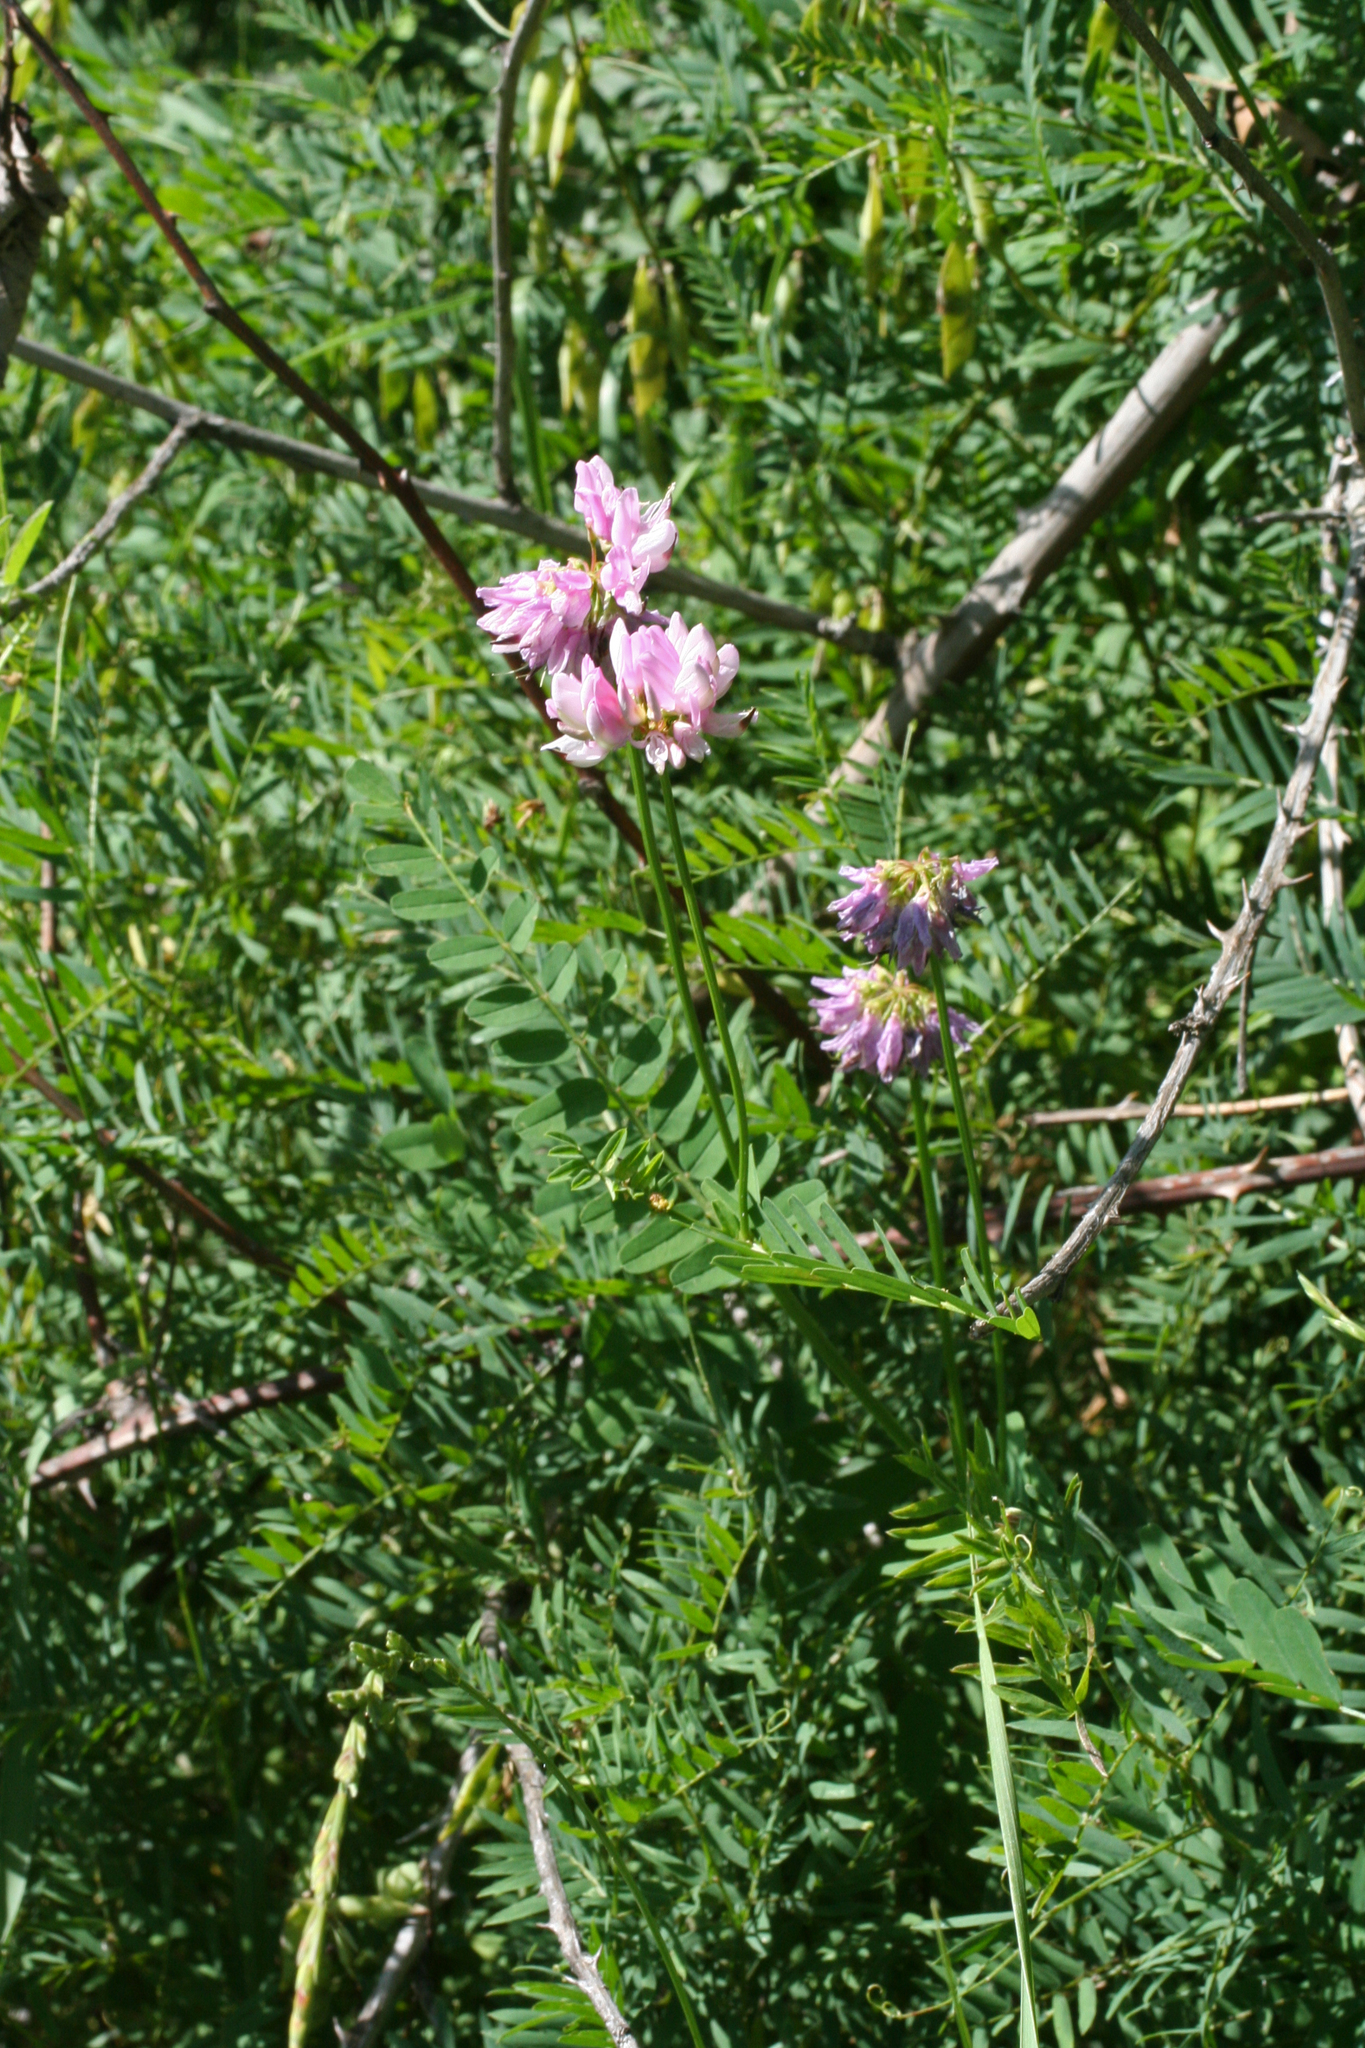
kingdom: Plantae
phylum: Tracheophyta
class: Magnoliopsida
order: Fabales
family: Fabaceae
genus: Coronilla
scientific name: Coronilla varia
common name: Crownvetch
